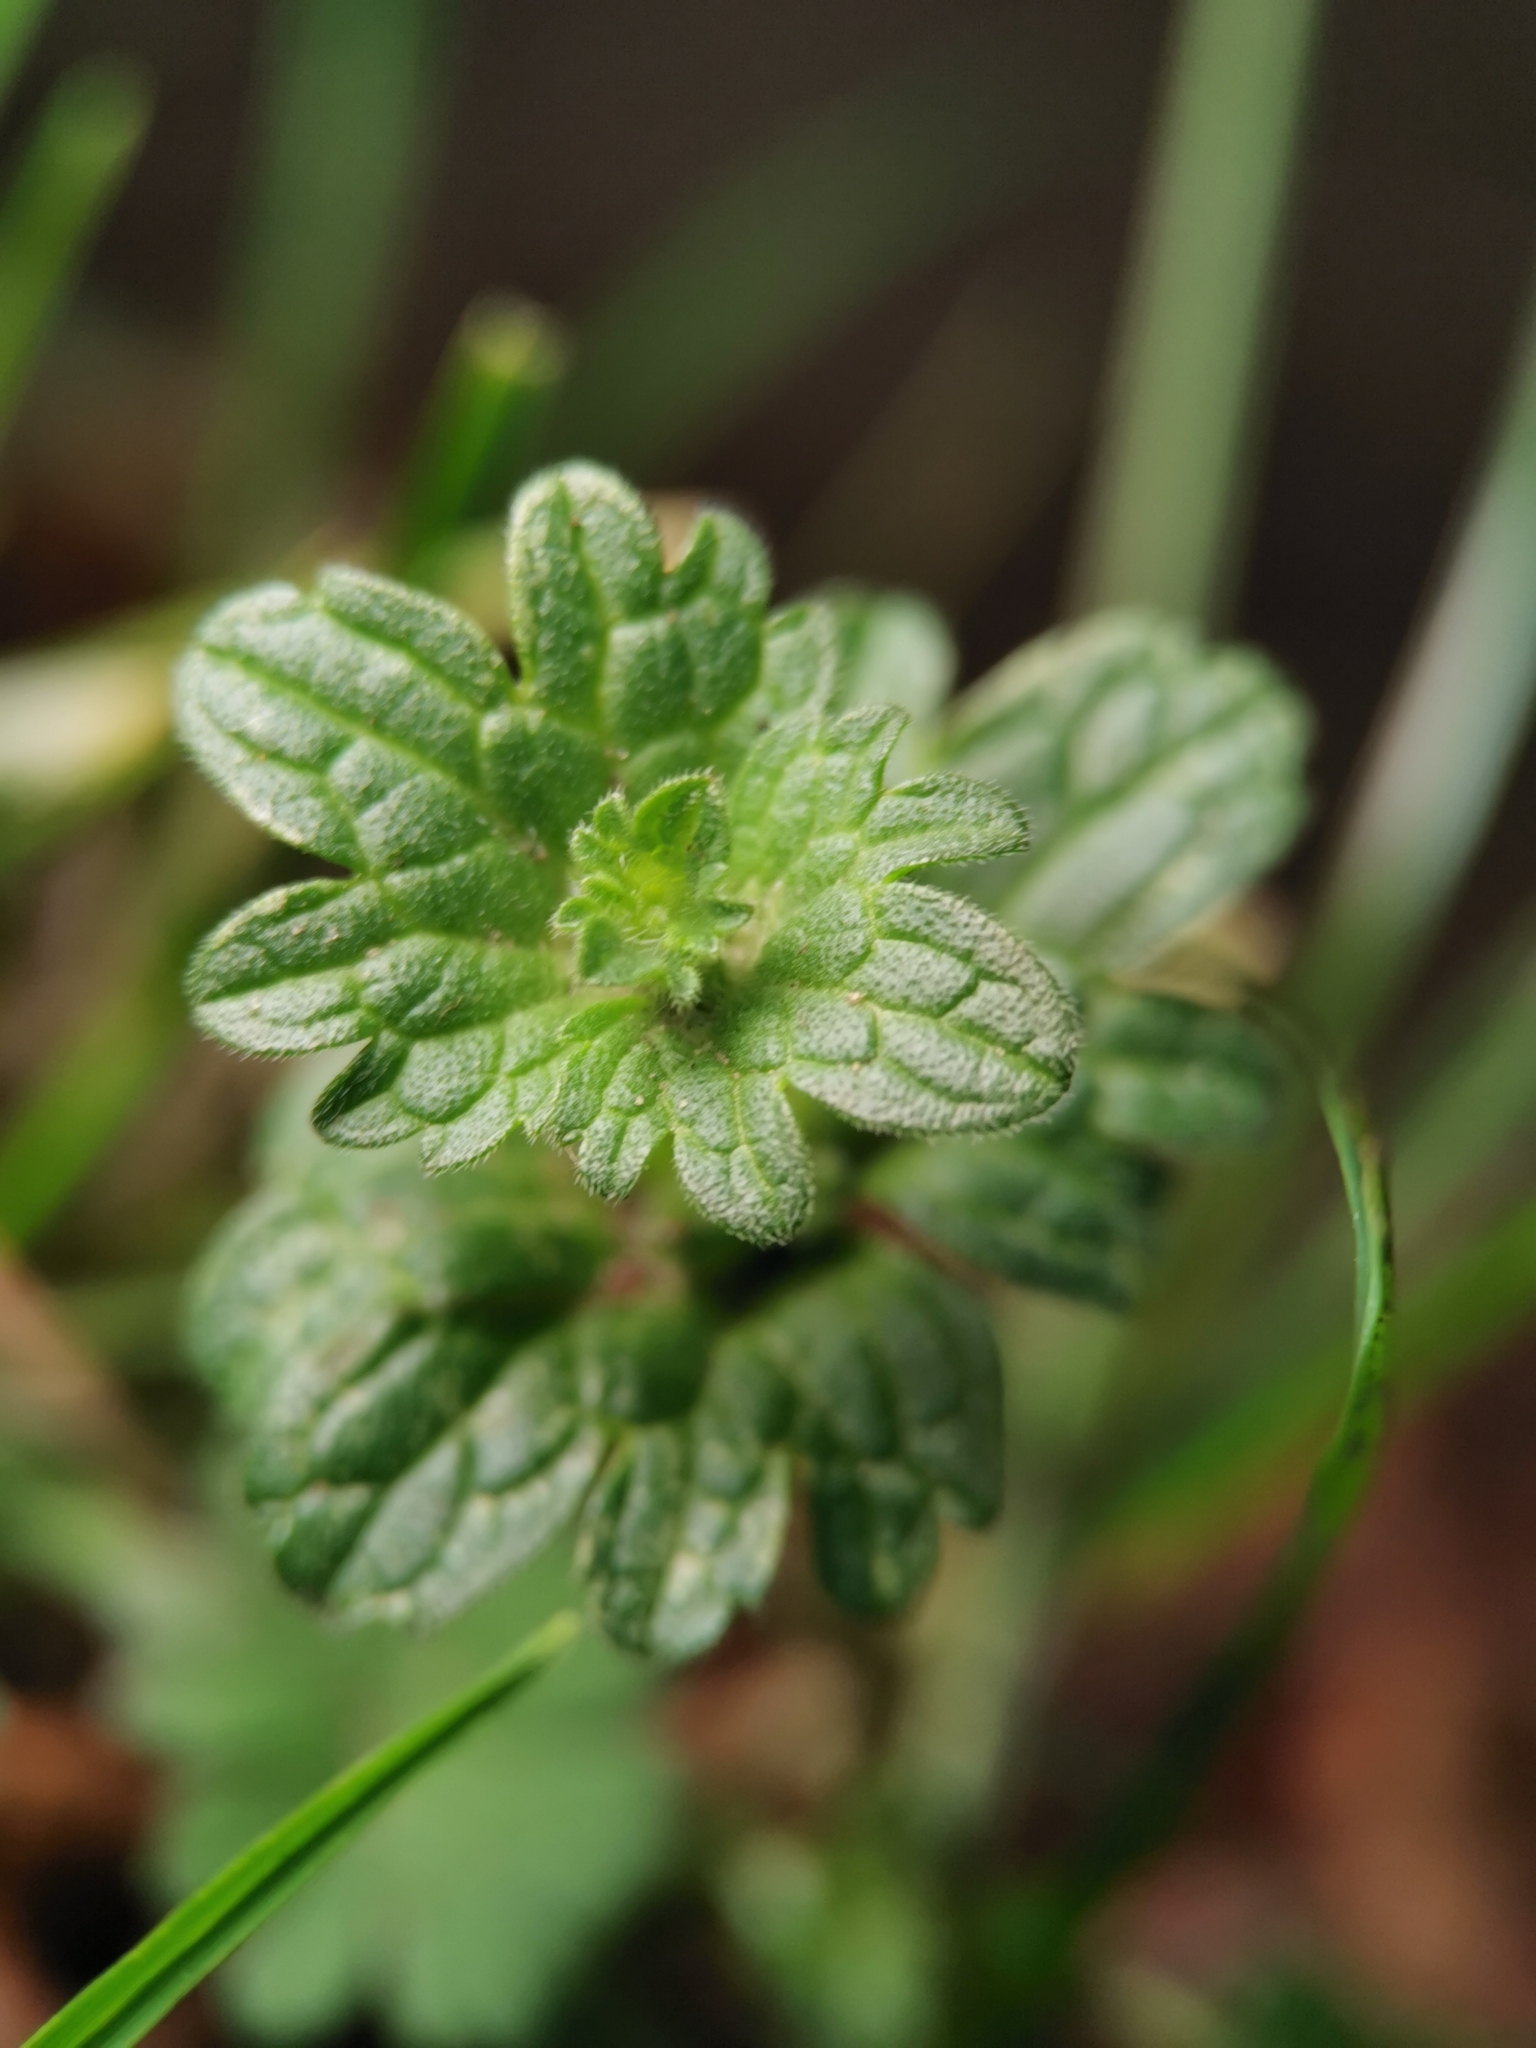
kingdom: Plantae
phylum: Tracheophyta
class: Magnoliopsida
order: Lamiales
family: Lamiaceae
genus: Lamium
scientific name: Lamium amplexicaule
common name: Henbit dead-nettle
